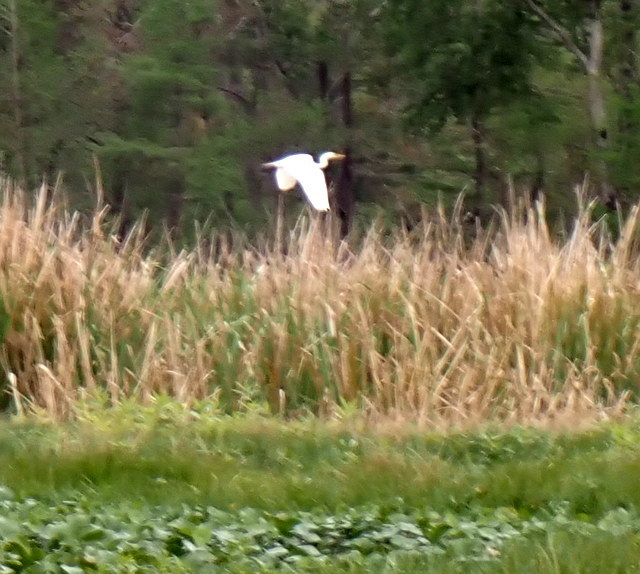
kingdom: Animalia
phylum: Chordata
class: Aves
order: Pelecaniformes
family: Ardeidae
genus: Ardea
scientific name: Ardea alba
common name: Great egret
